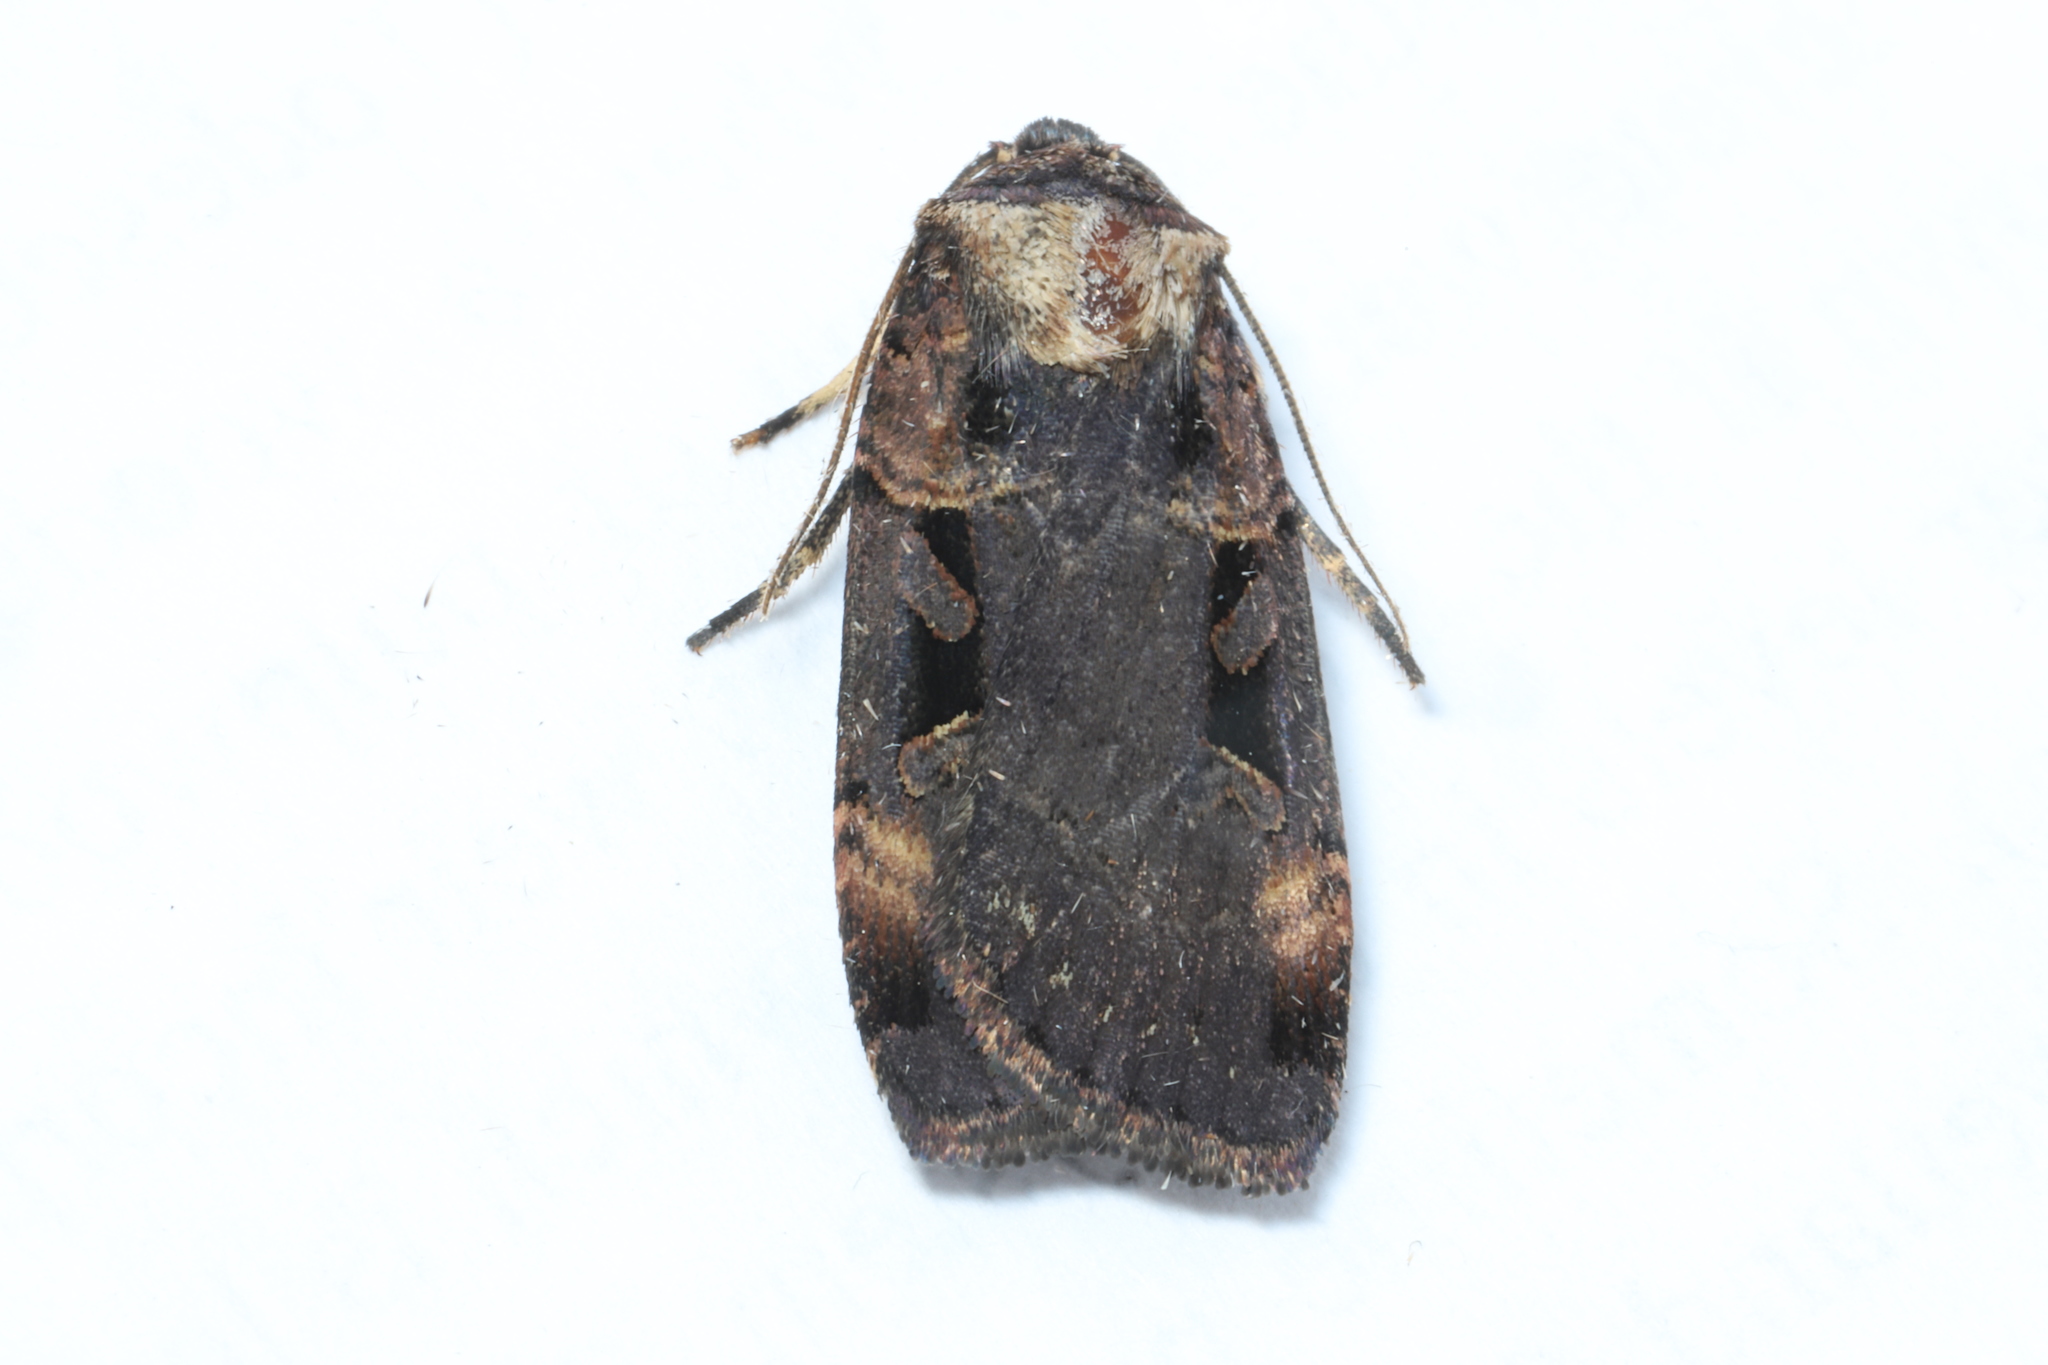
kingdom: Animalia
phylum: Arthropoda
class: Insecta
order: Lepidoptera
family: Noctuidae
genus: Pseudohermonassa
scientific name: Pseudohermonassa bicarnea
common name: Pink spotted dart
